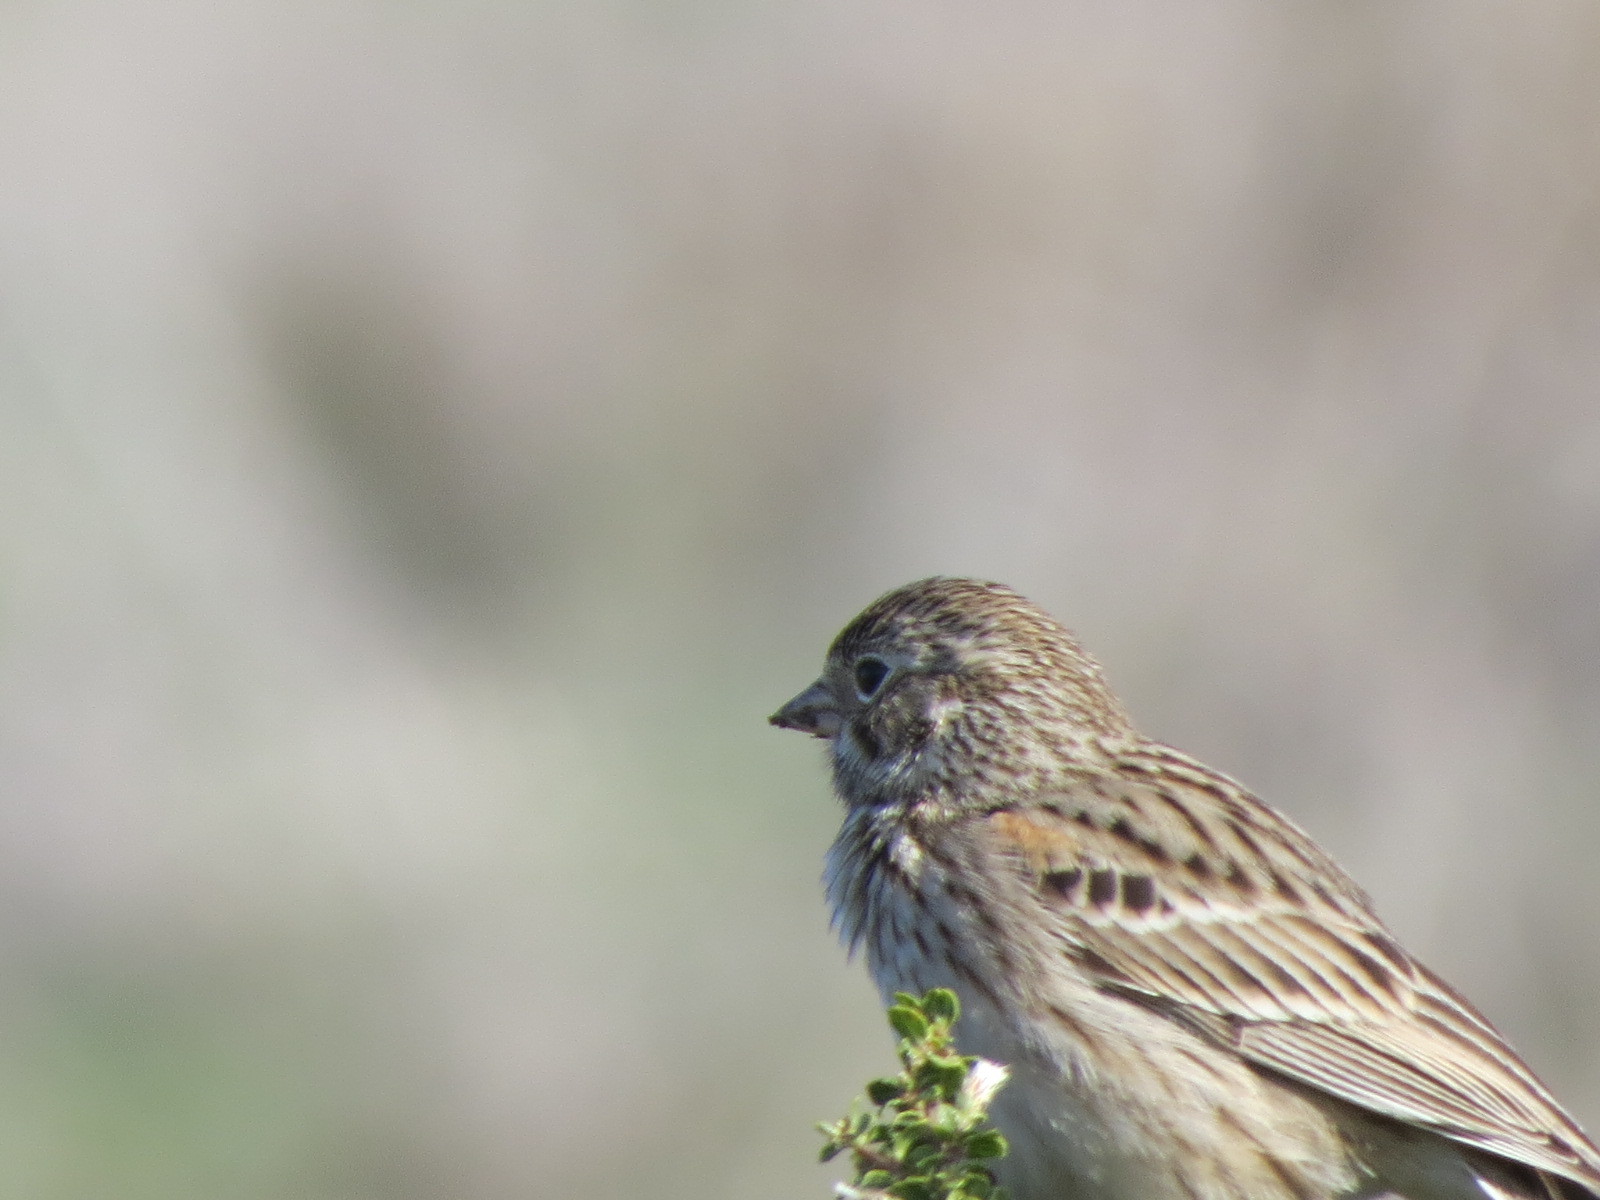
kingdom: Animalia
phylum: Chordata
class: Aves
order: Passeriformes
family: Passerellidae
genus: Pooecetes
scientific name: Pooecetes gramineus
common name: Vesper sparrow
